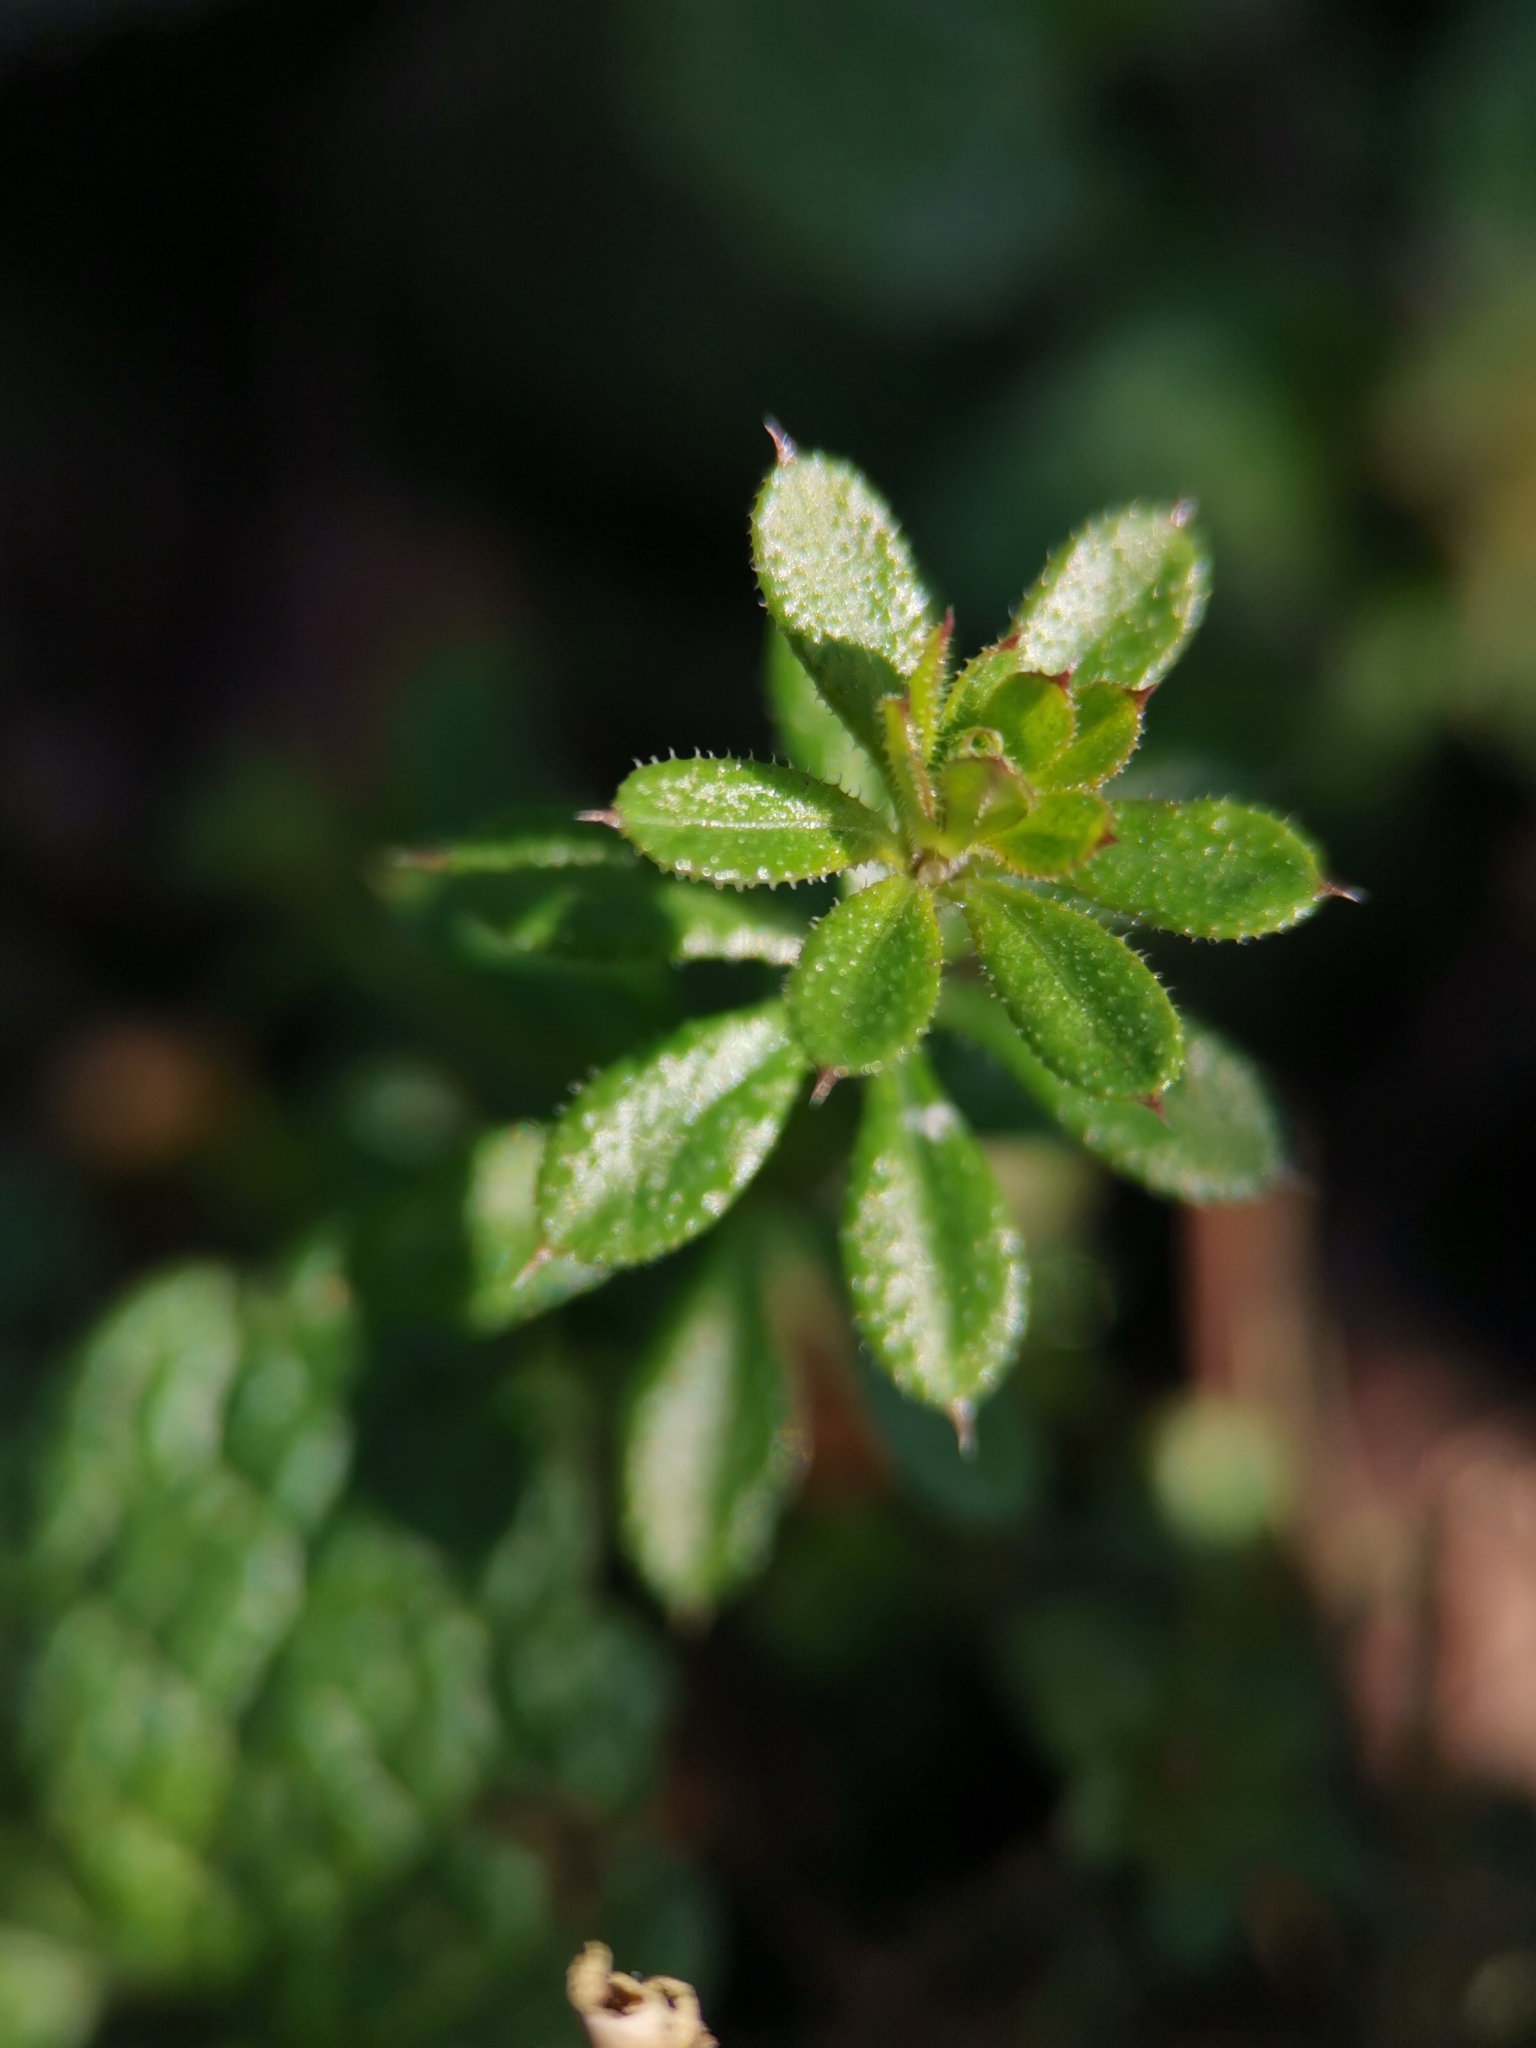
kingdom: Plantae
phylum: Tracheophyta
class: Magnoliopsida
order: Gentianales
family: Rubiaceae
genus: Galium
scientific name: Galium aparine
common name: Cleavers
